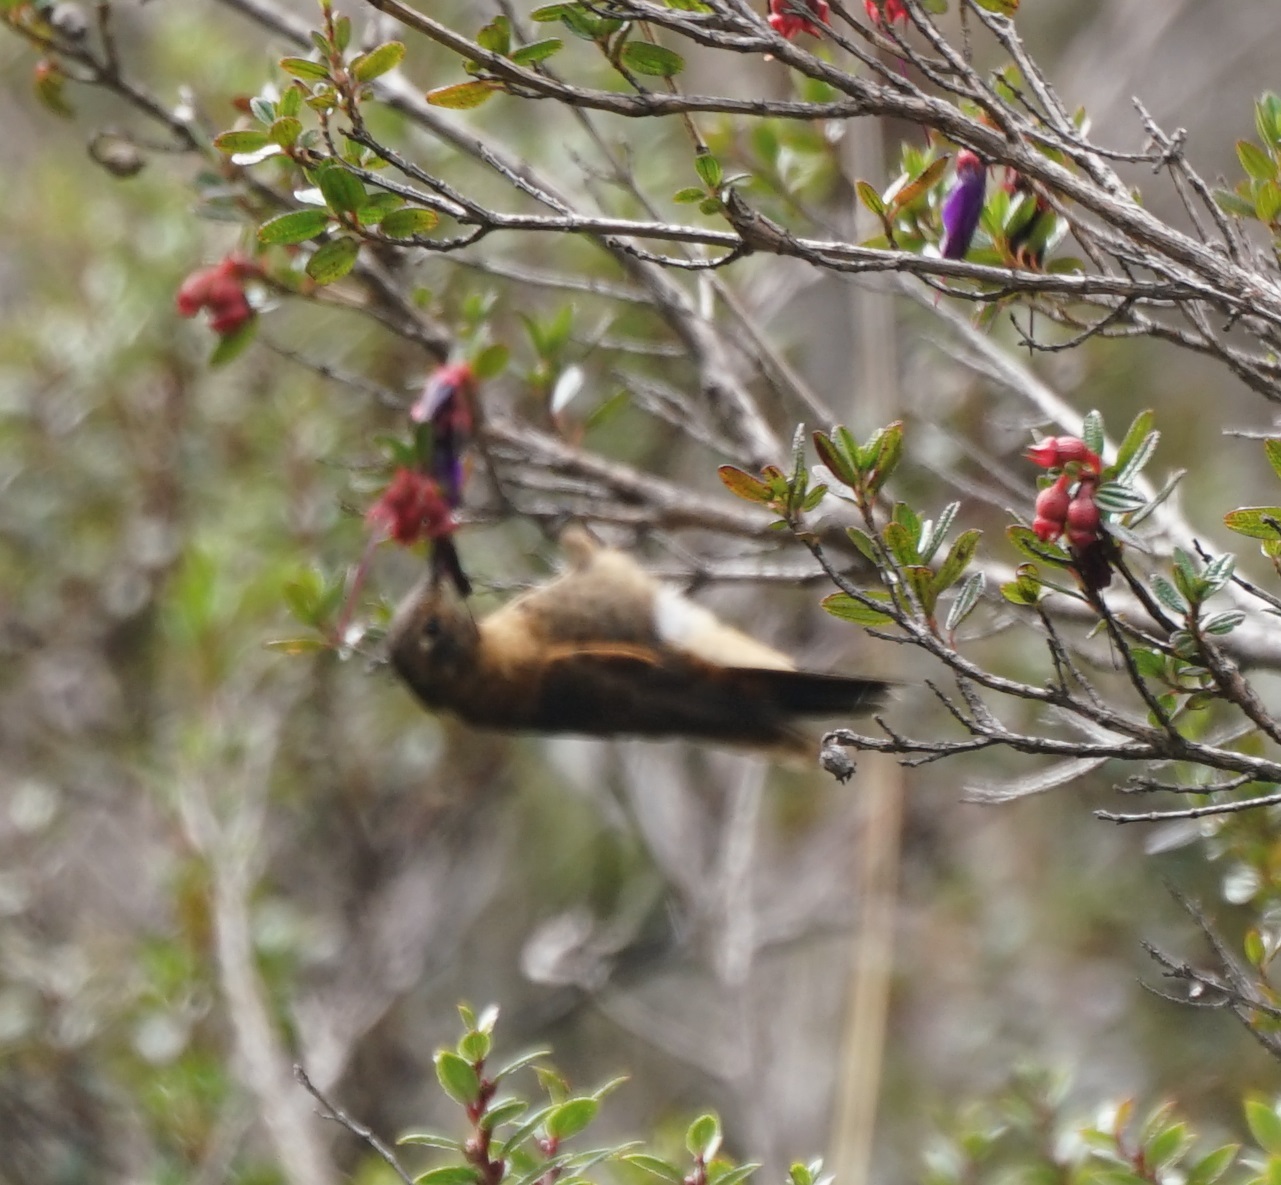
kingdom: Animalia
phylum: Chordata
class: Aves
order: Apodiformes
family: Trochilidae
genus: Aglaeactis
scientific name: Aglaeactis cupripennis
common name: Shining sunbeam
